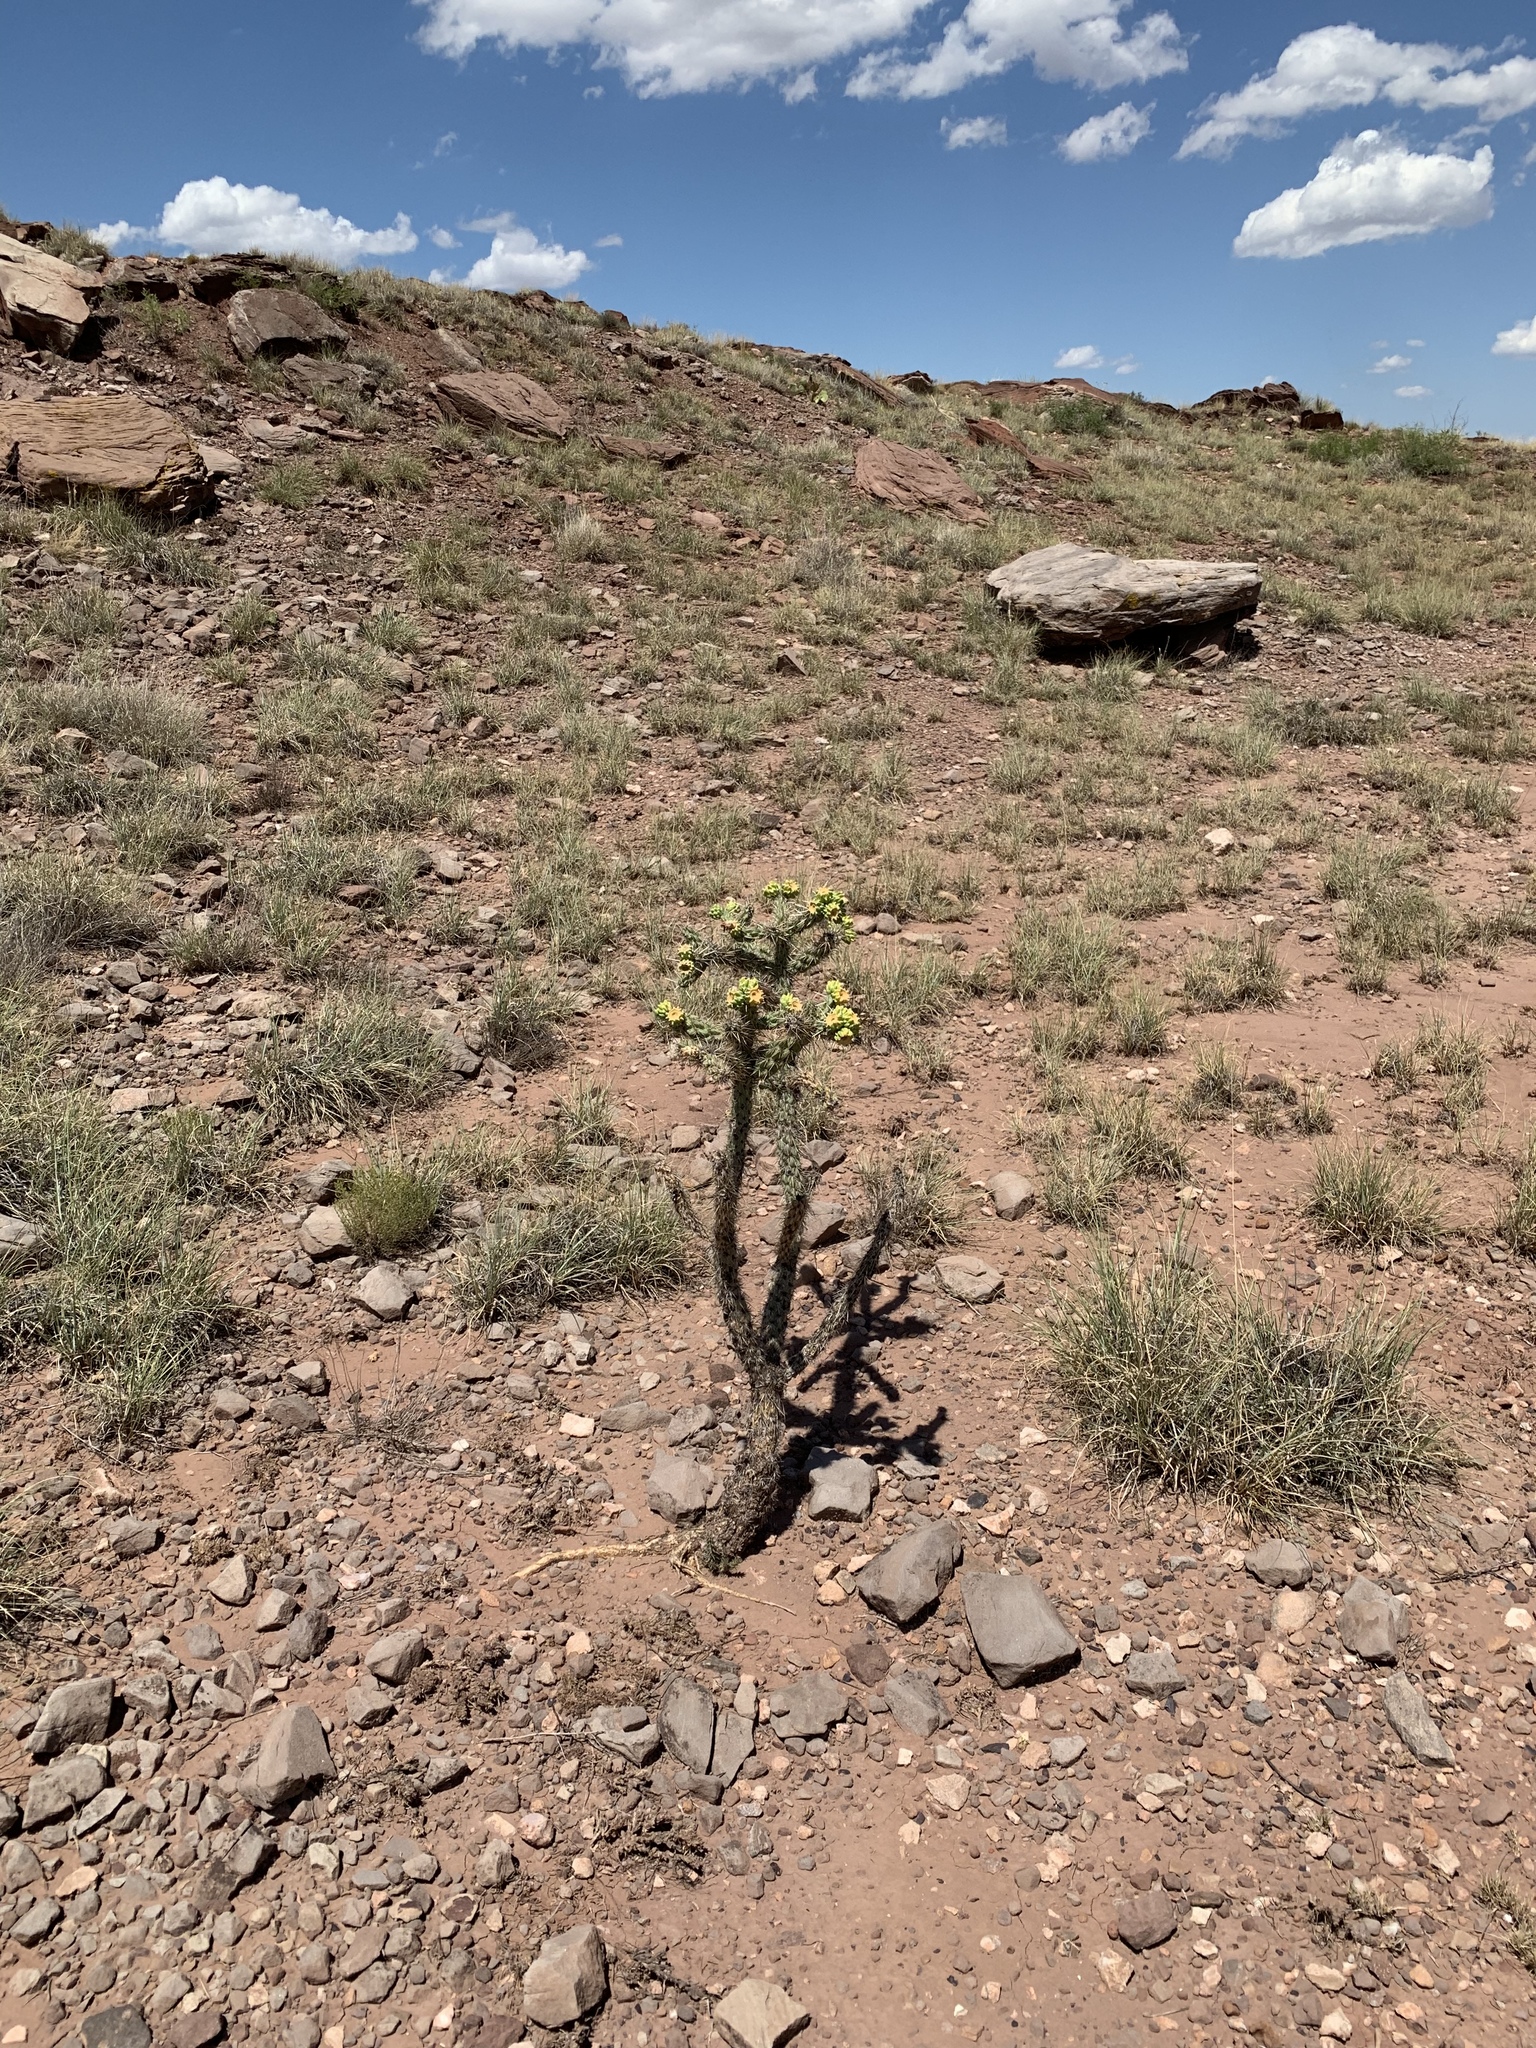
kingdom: Plantae
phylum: Tracheophyta
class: Magnoliopsida
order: Caryophyllales
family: Cactaceae
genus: Cylindropuntia
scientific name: Cylindropuntia imbricata
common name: Candelabrum cactus
